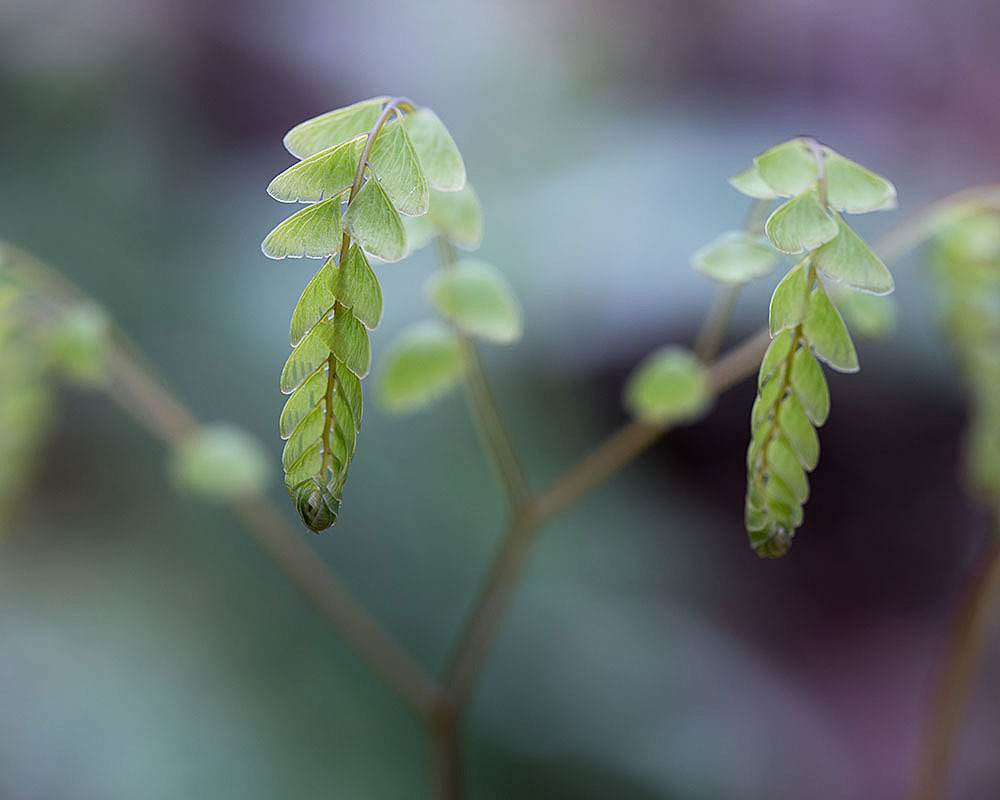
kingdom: Plantae
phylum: Tracheophyta
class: Polypodiopsida
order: Polypodiales
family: Pteridaceae
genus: Adiantum
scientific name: Adiantum pedatum
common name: Five-finger fern
